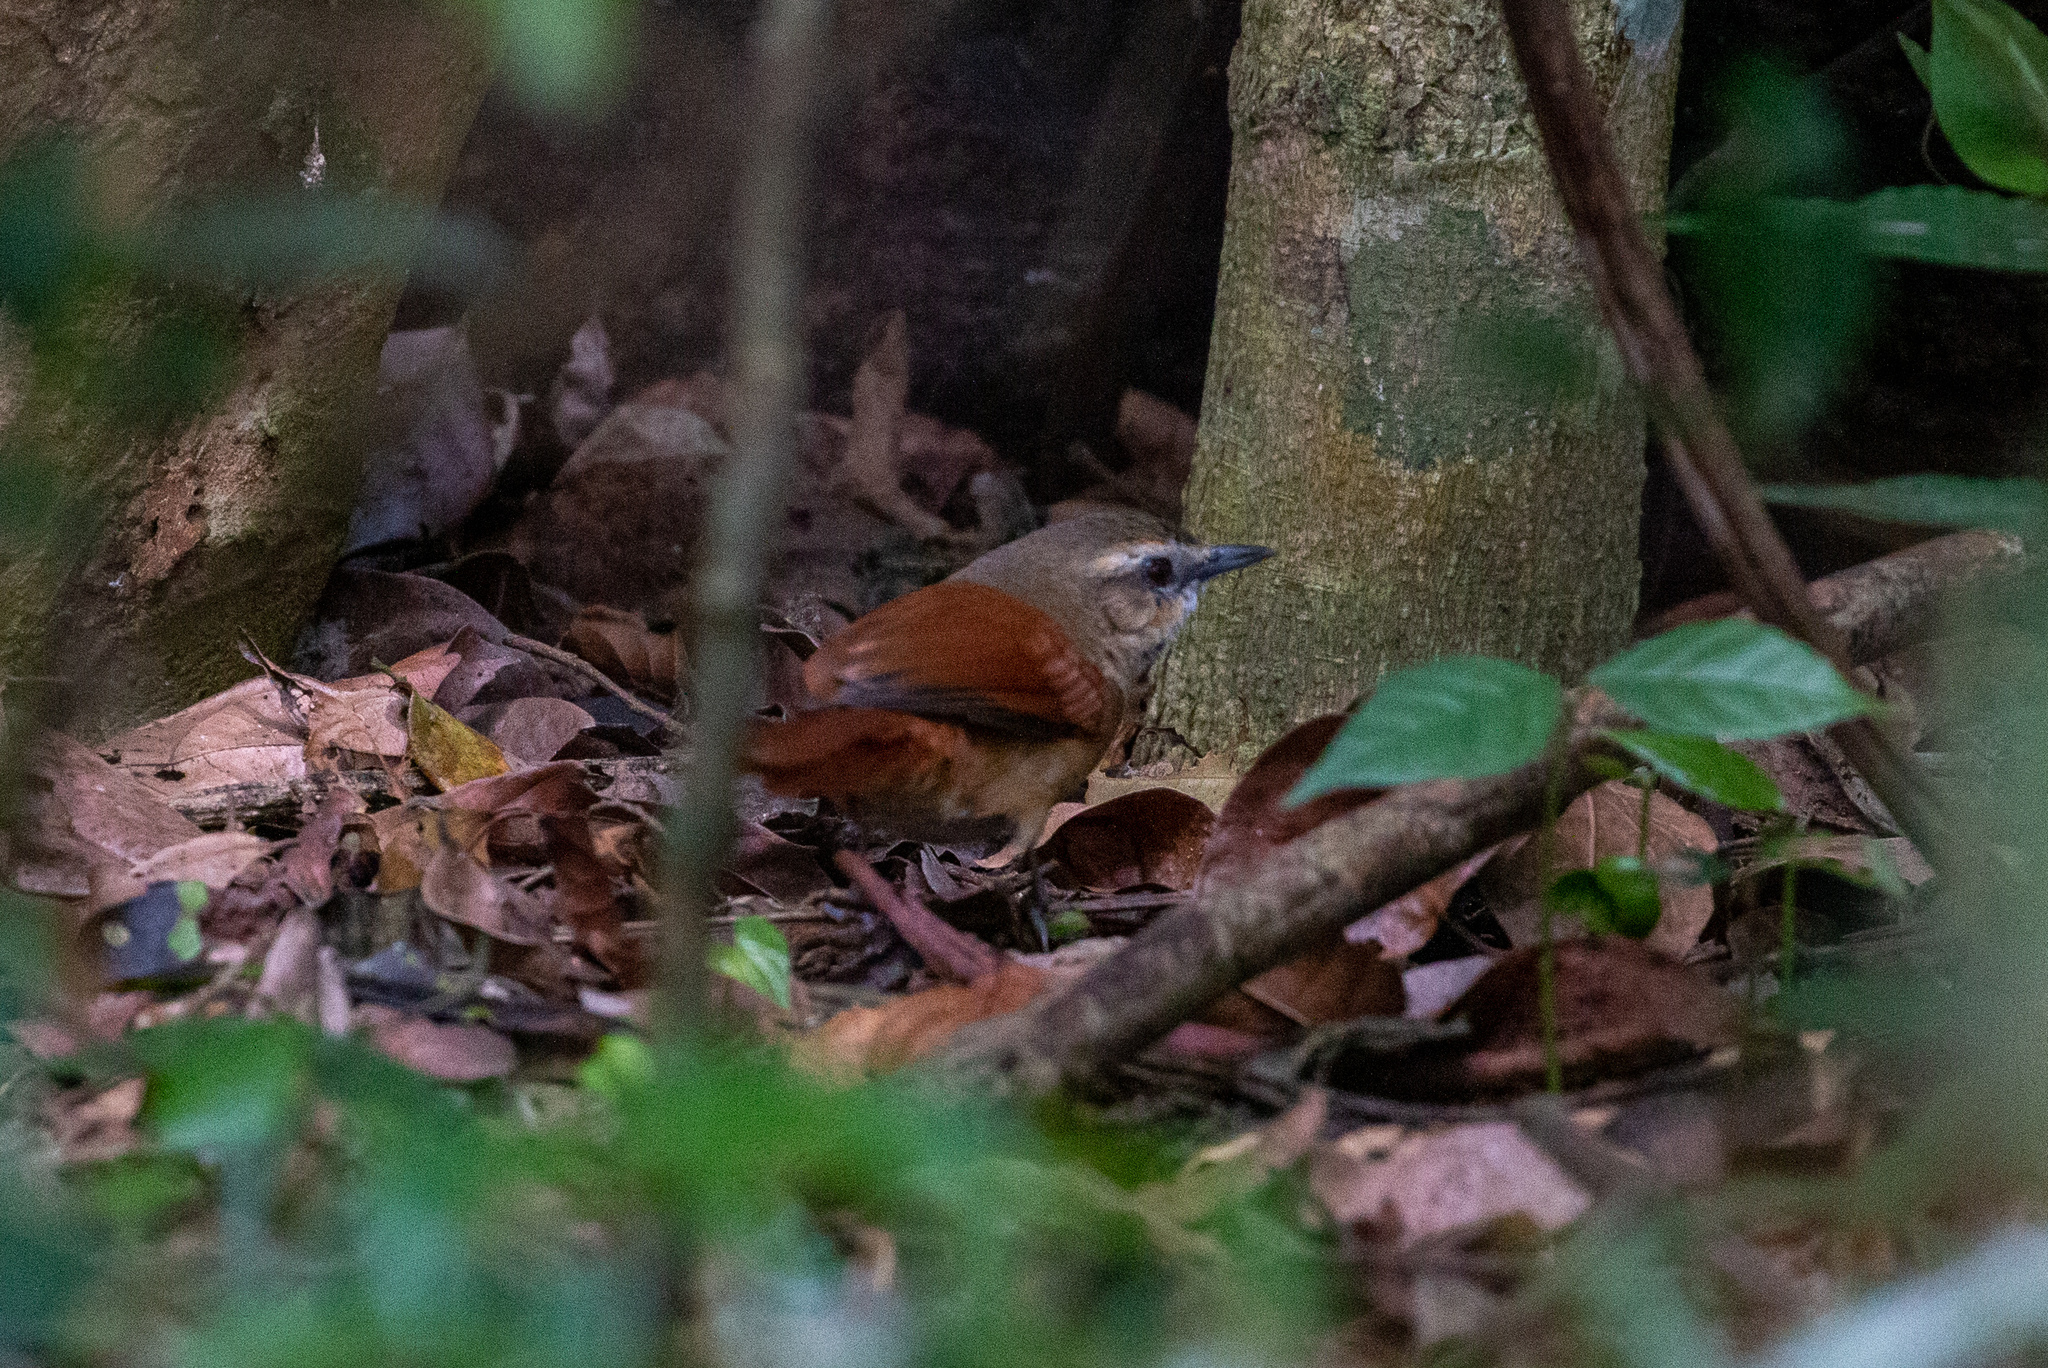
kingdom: Animalia
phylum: Chordata
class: Aves
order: Passeriformes
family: Furnariidae
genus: Synallaxis
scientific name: Synallaxis scutata
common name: Ochre-cheeked spinetail
